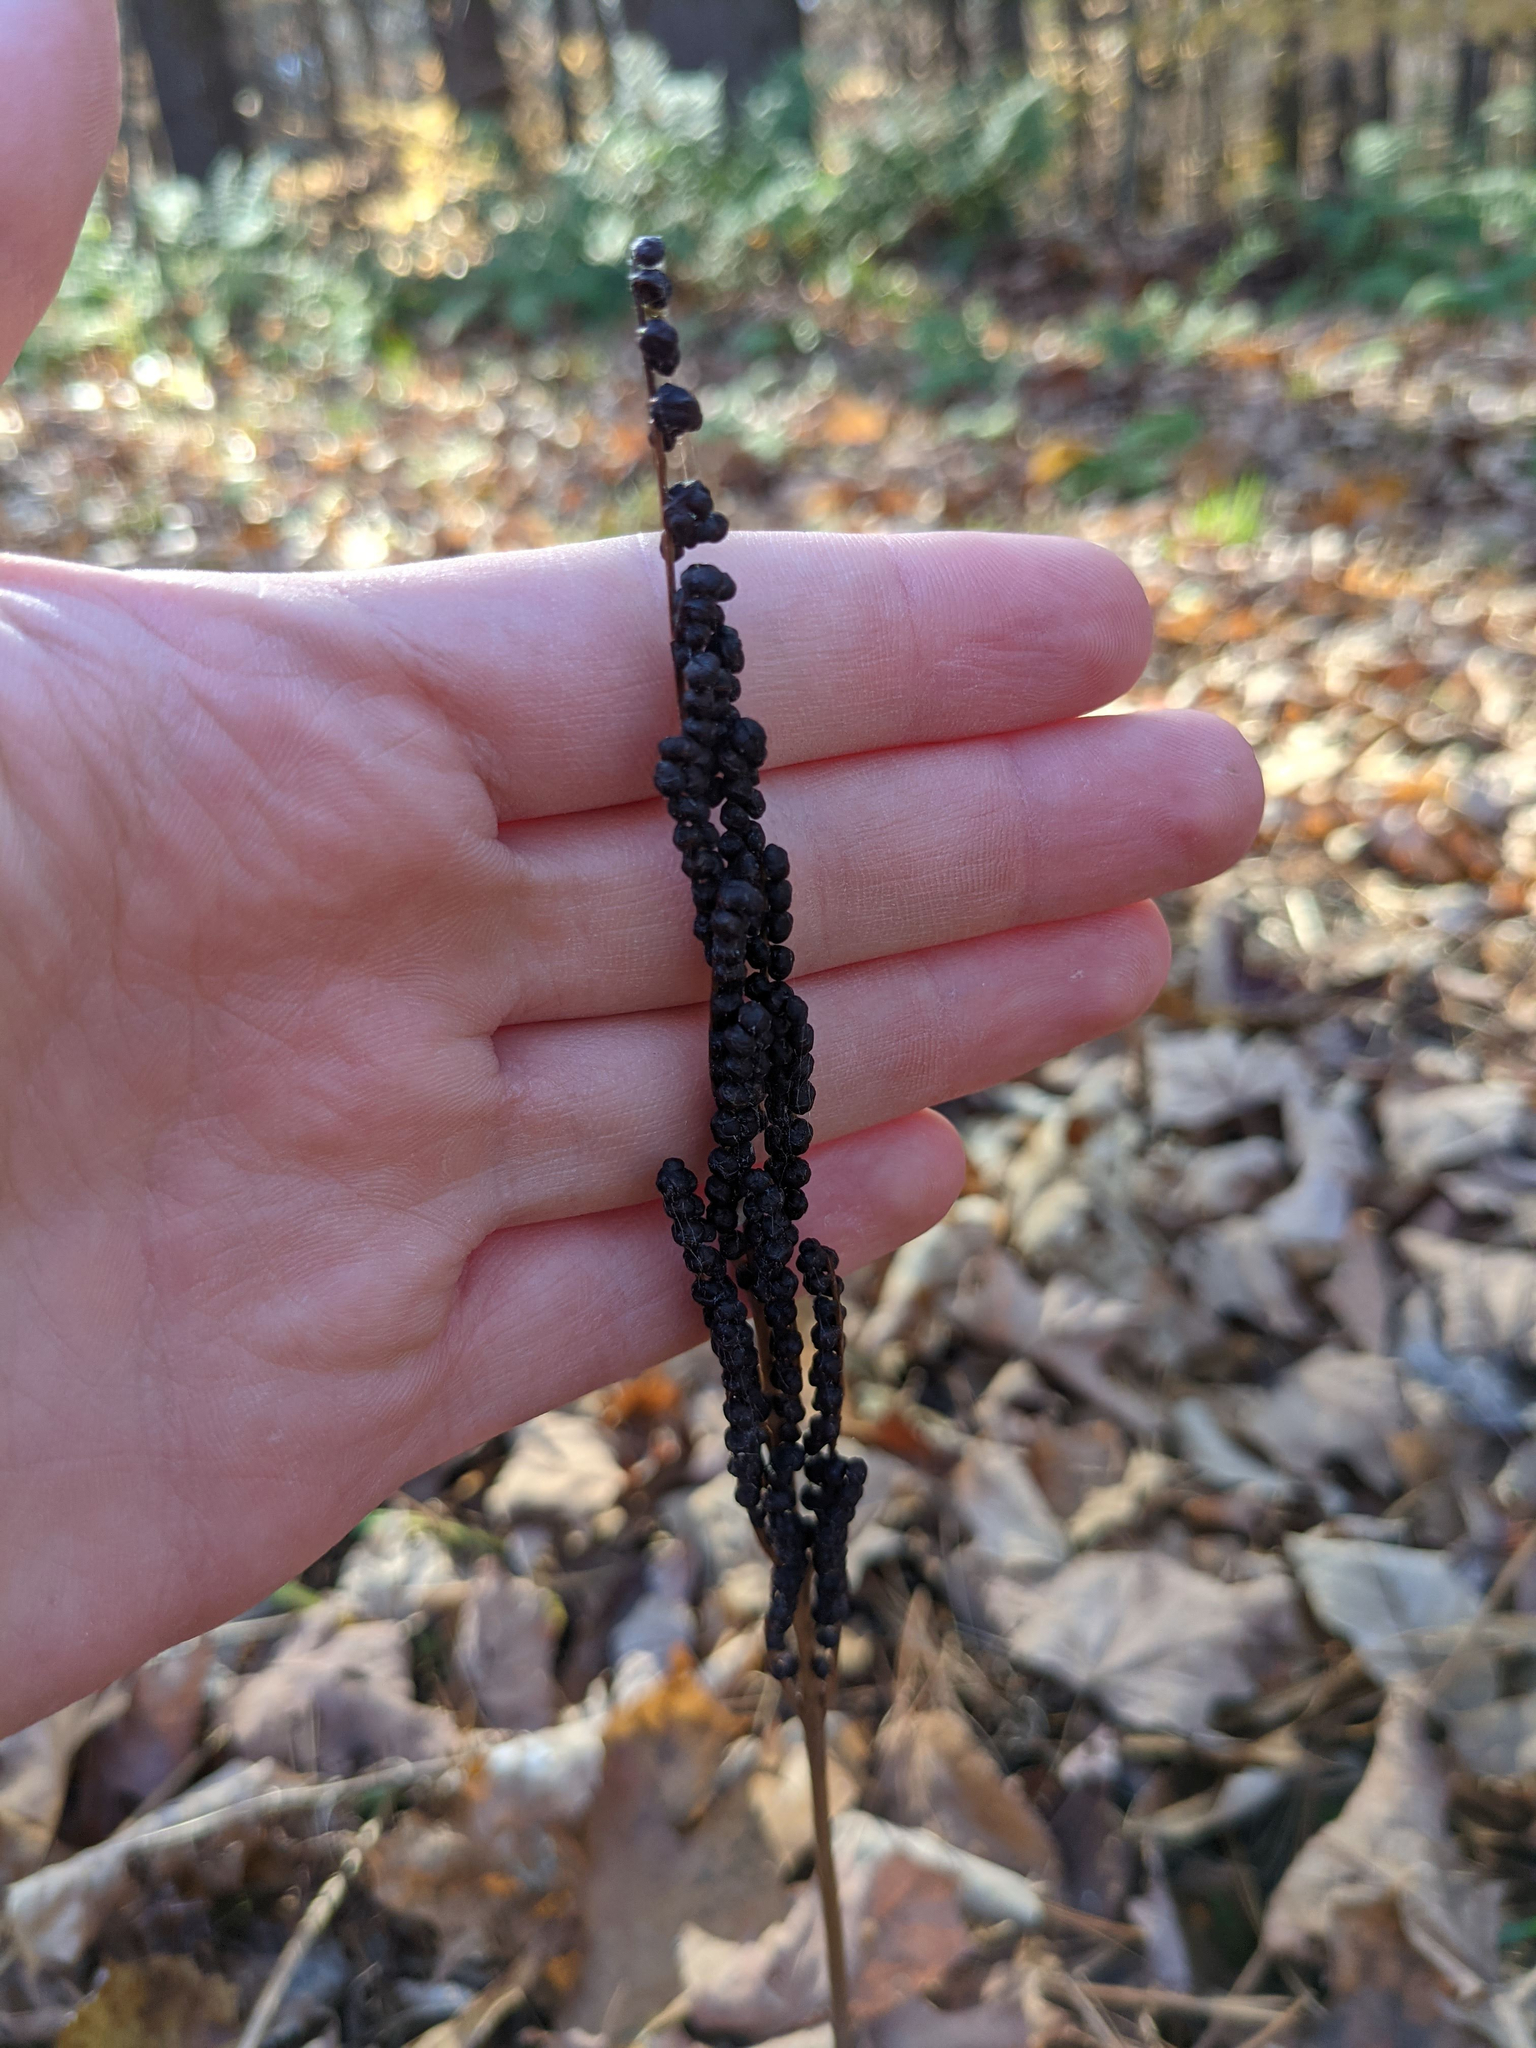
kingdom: Plantae
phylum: Tracheophyta
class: Polypodiopsida
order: Polypodiales
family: Onocleaceae
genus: Onoclea
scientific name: Onoclea sensibilis
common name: Sensitive fern
